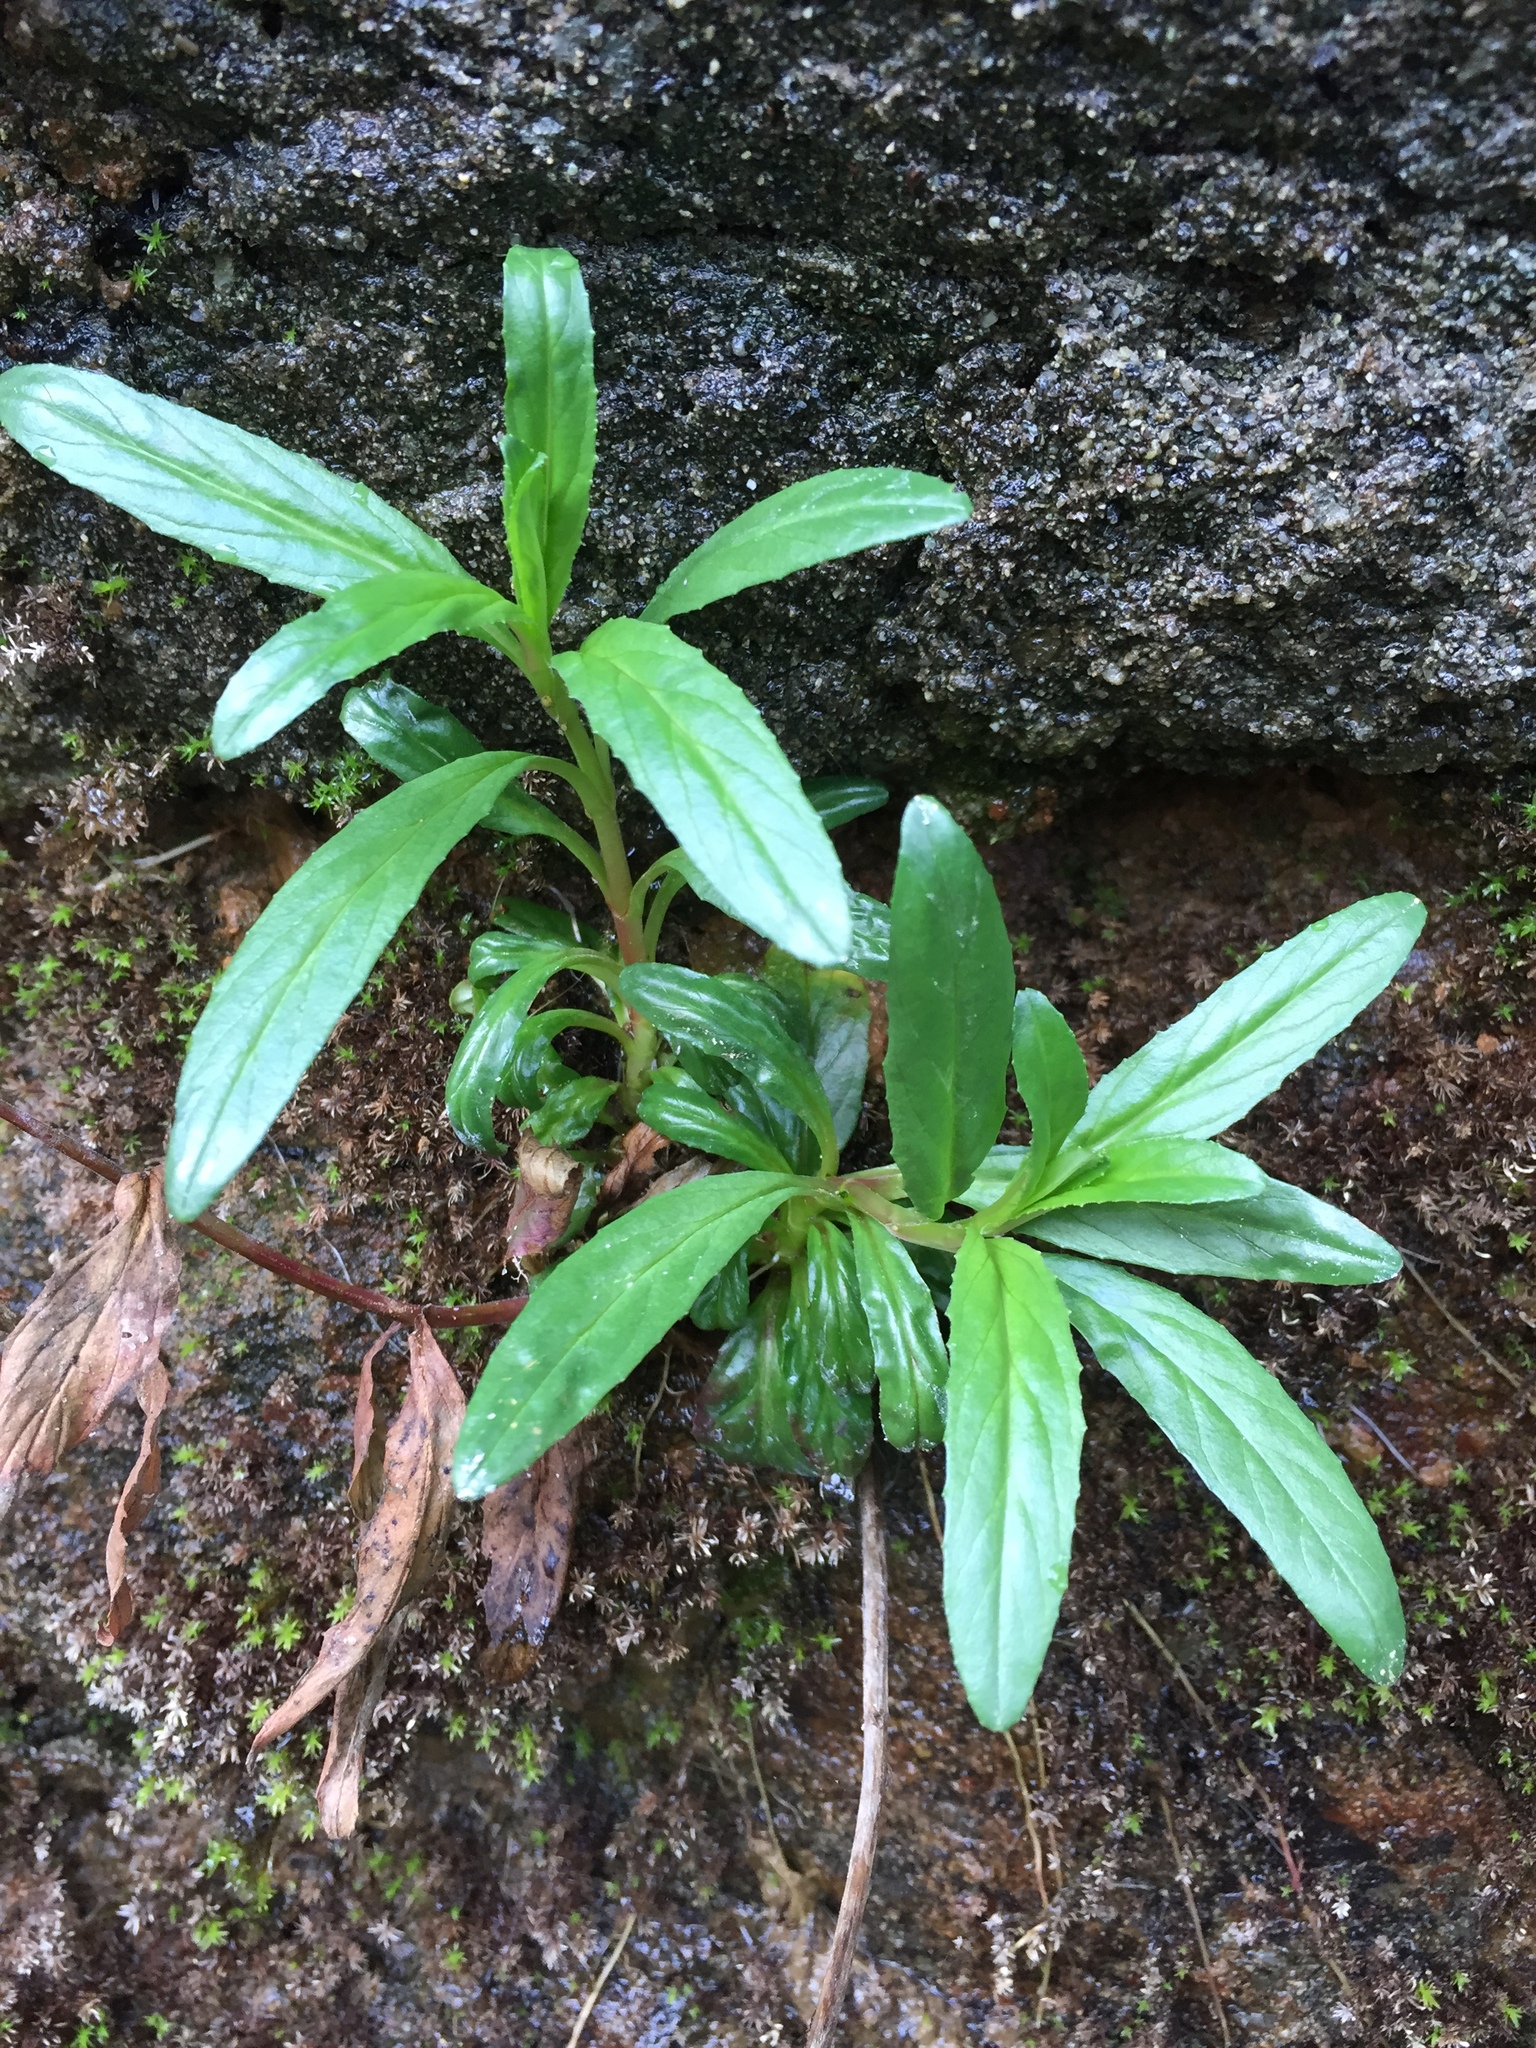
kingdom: Plantae
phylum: Tracheophyta
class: Magnoliopsida
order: Myrtales
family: Onagraceae
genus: Epilobium
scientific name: Epilobium ciliatum
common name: American willowherb
